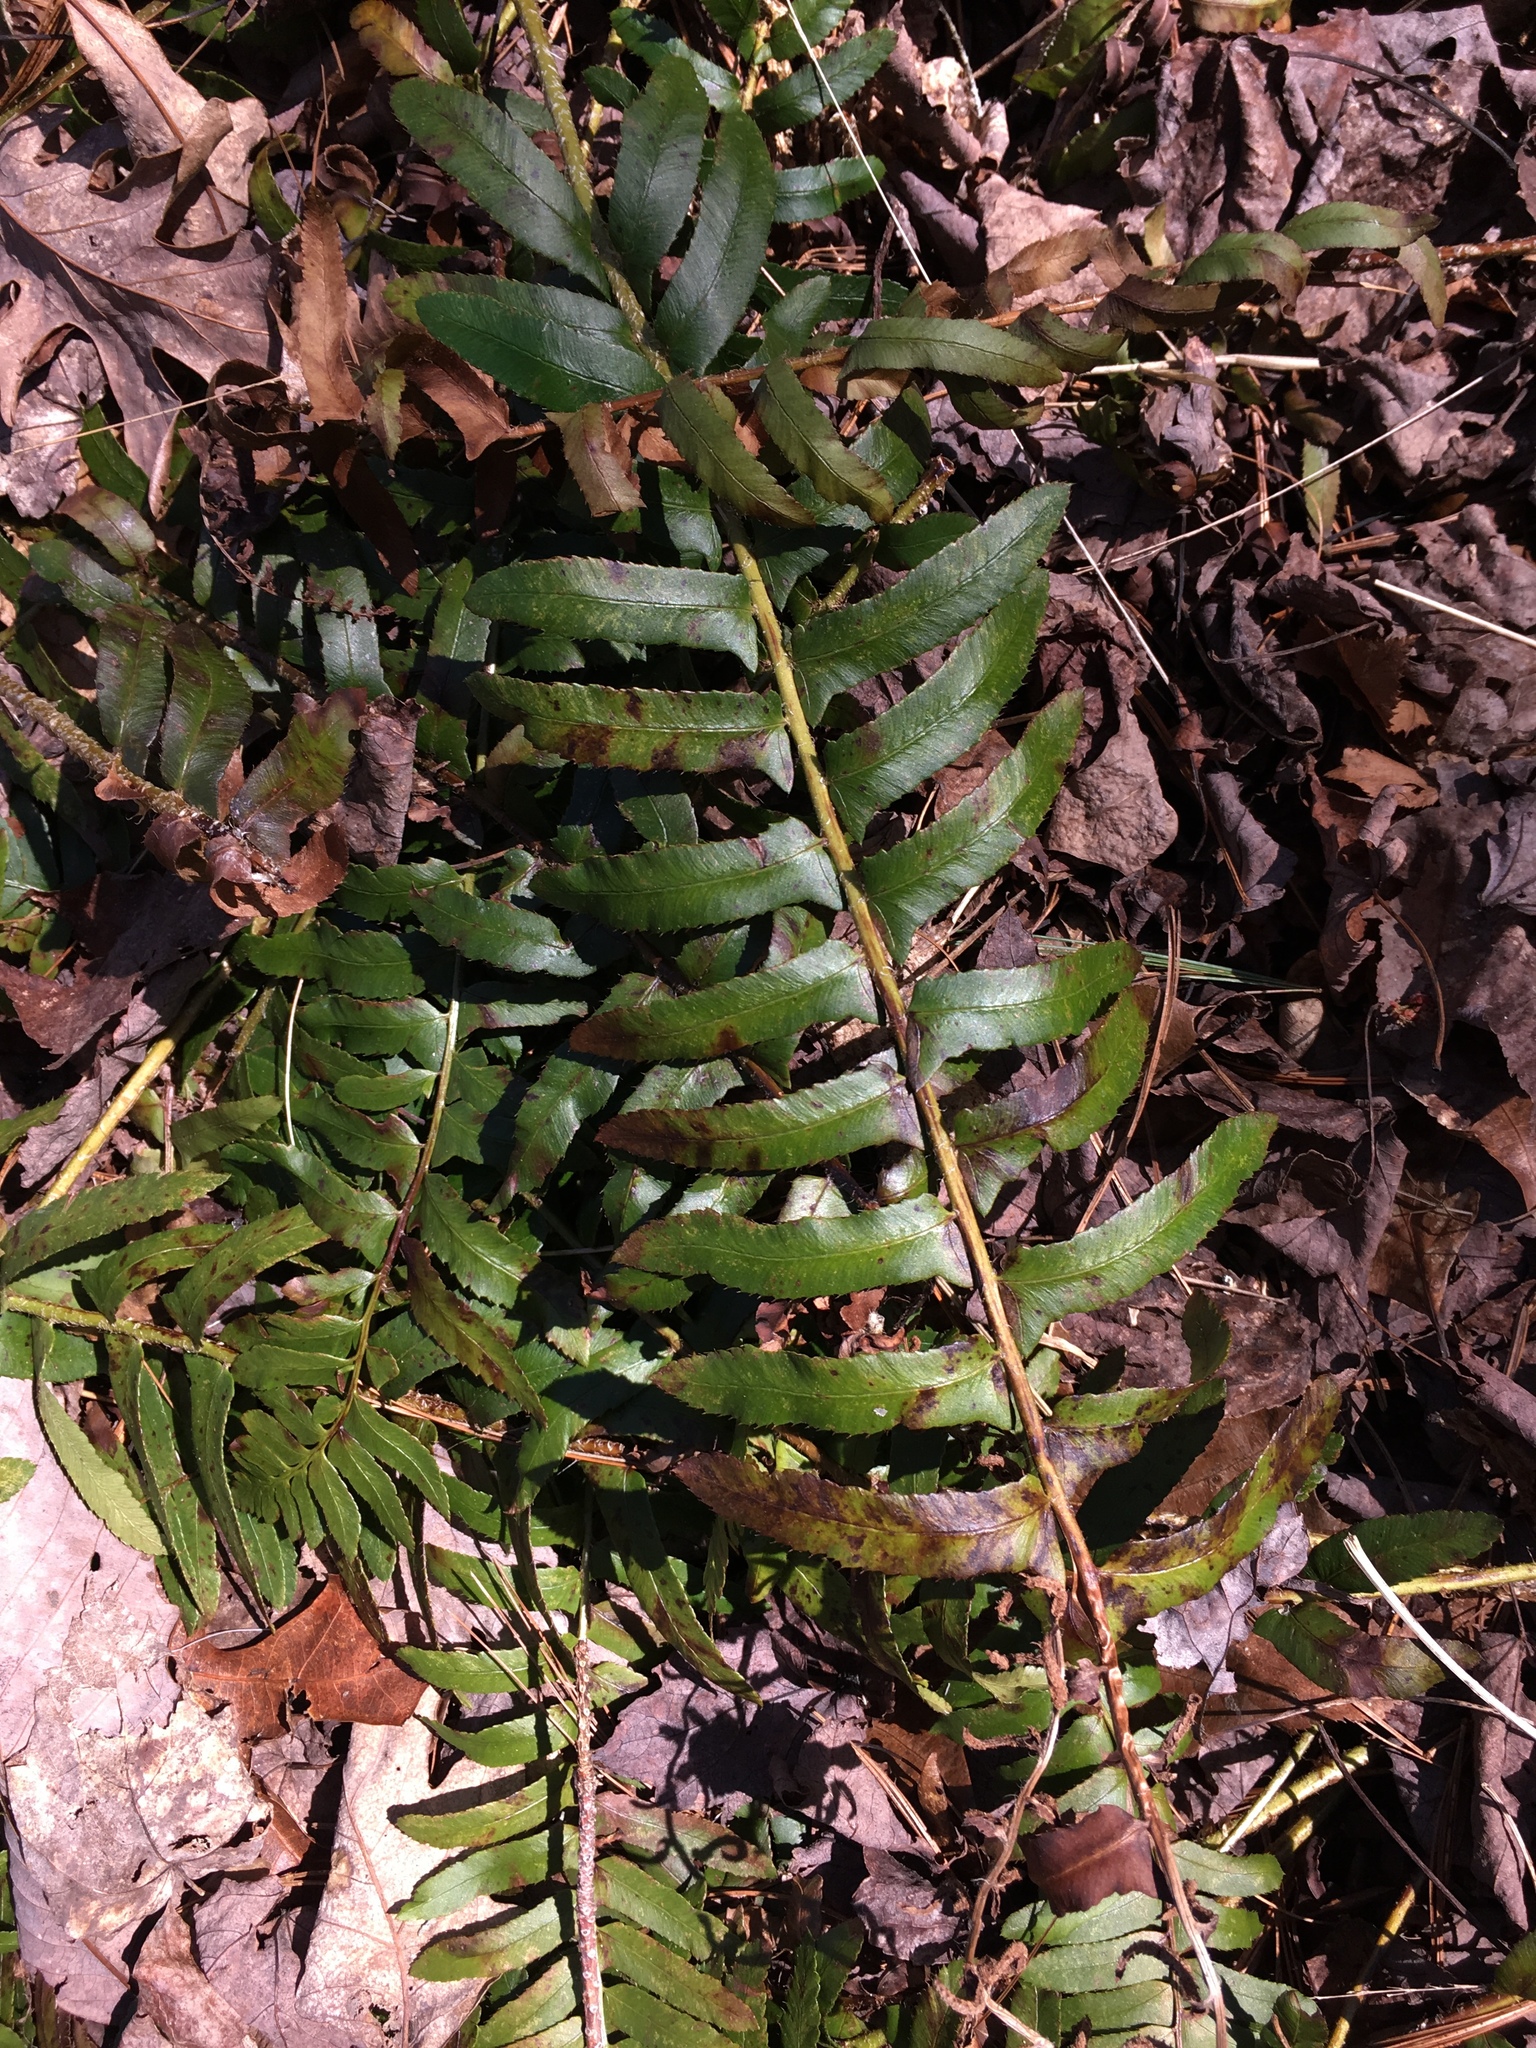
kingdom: Plantae
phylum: Tracheophyta
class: Polypodiopsida
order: Polypodiales
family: Dryopteridaceae
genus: Polystichum
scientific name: Polystichum acrostichoides
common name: Christmas fern
